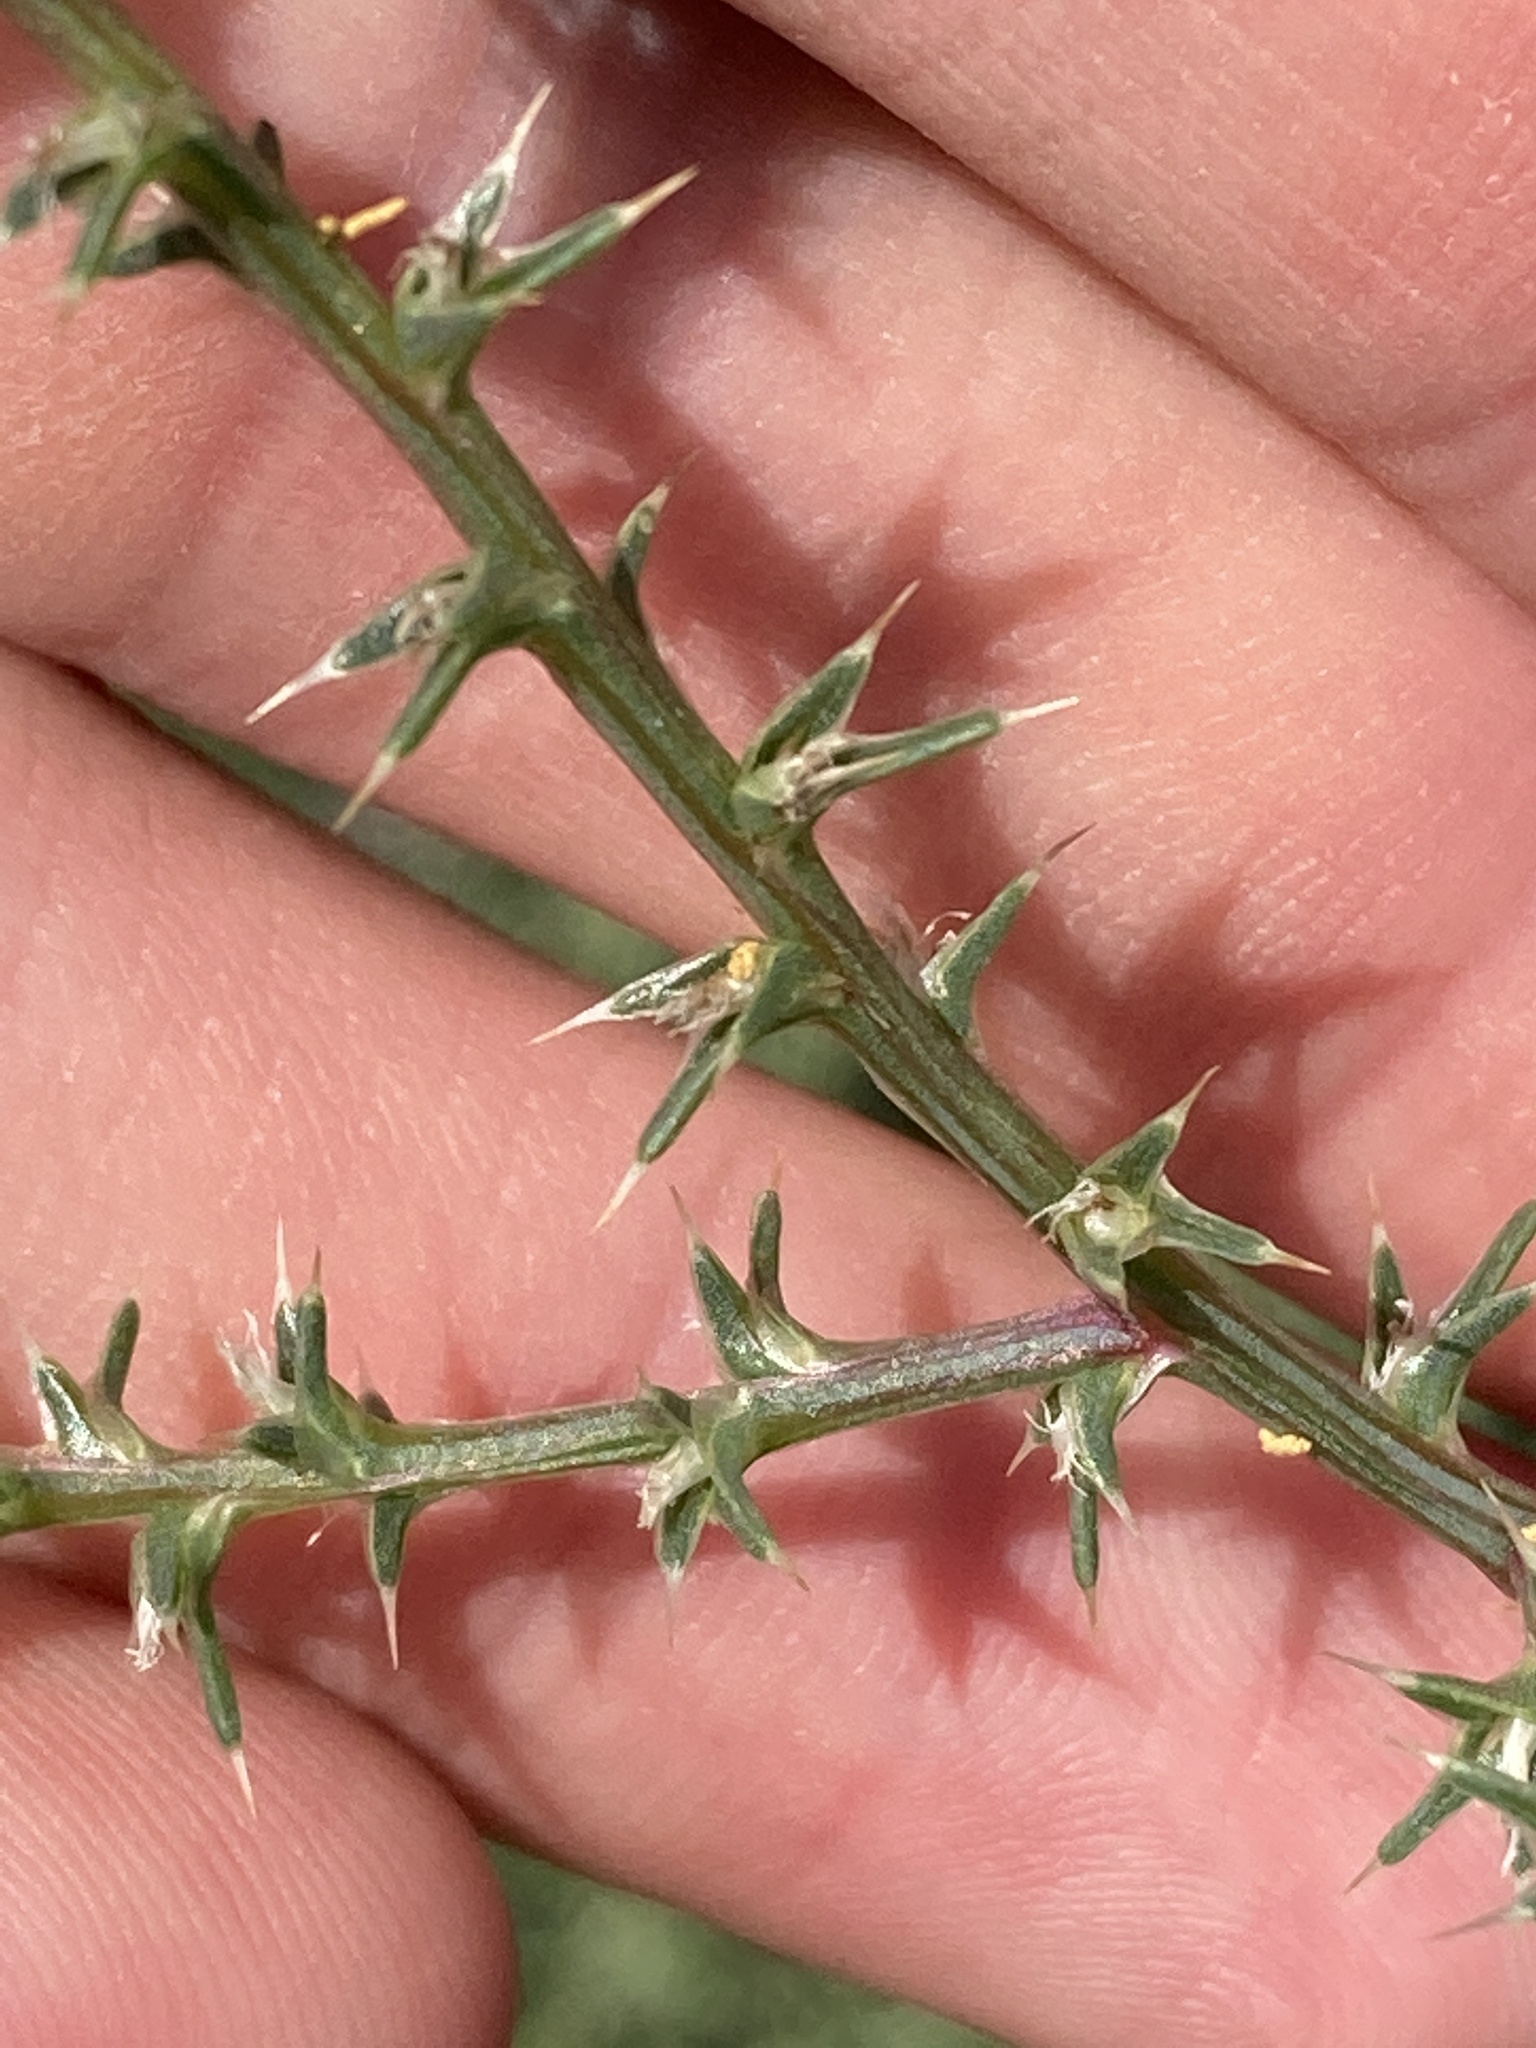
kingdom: Plantae
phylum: Tracheophyta
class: Magnoliopsida
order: Caryophyllales
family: Amaranthaceae
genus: Salsola
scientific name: Salsola tragus
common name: Prickly russian thistle
